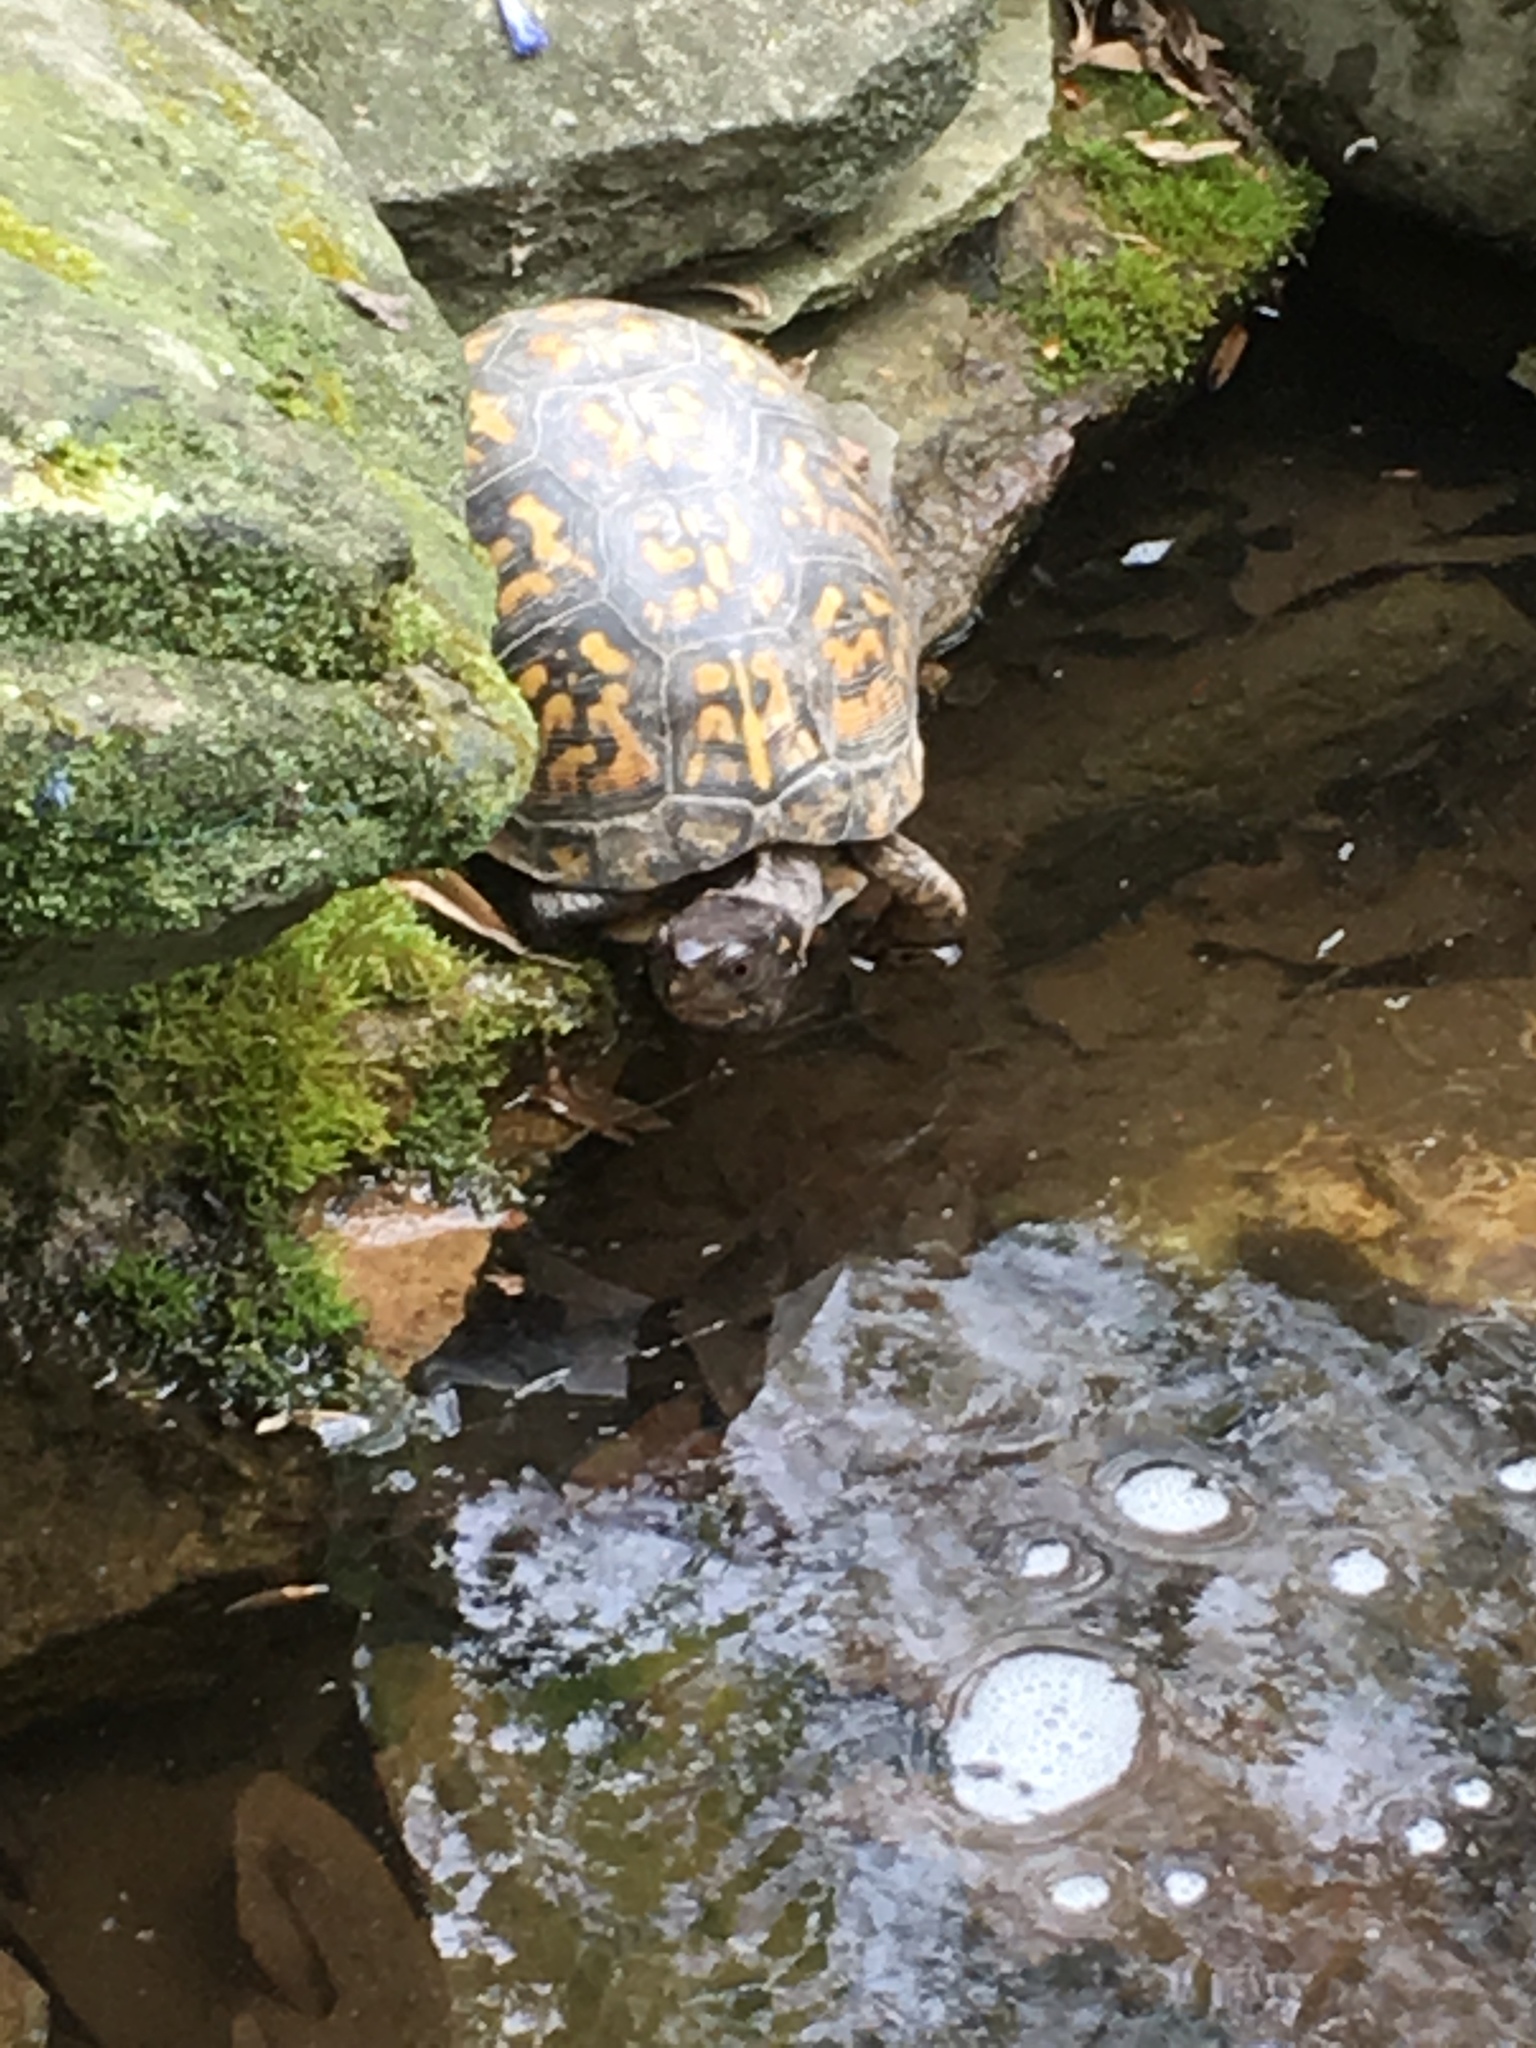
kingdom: Animalia
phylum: Chordata
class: Testudines
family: Emydidae
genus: Terrapene
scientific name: Terrapene carolina
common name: Common box turtle
